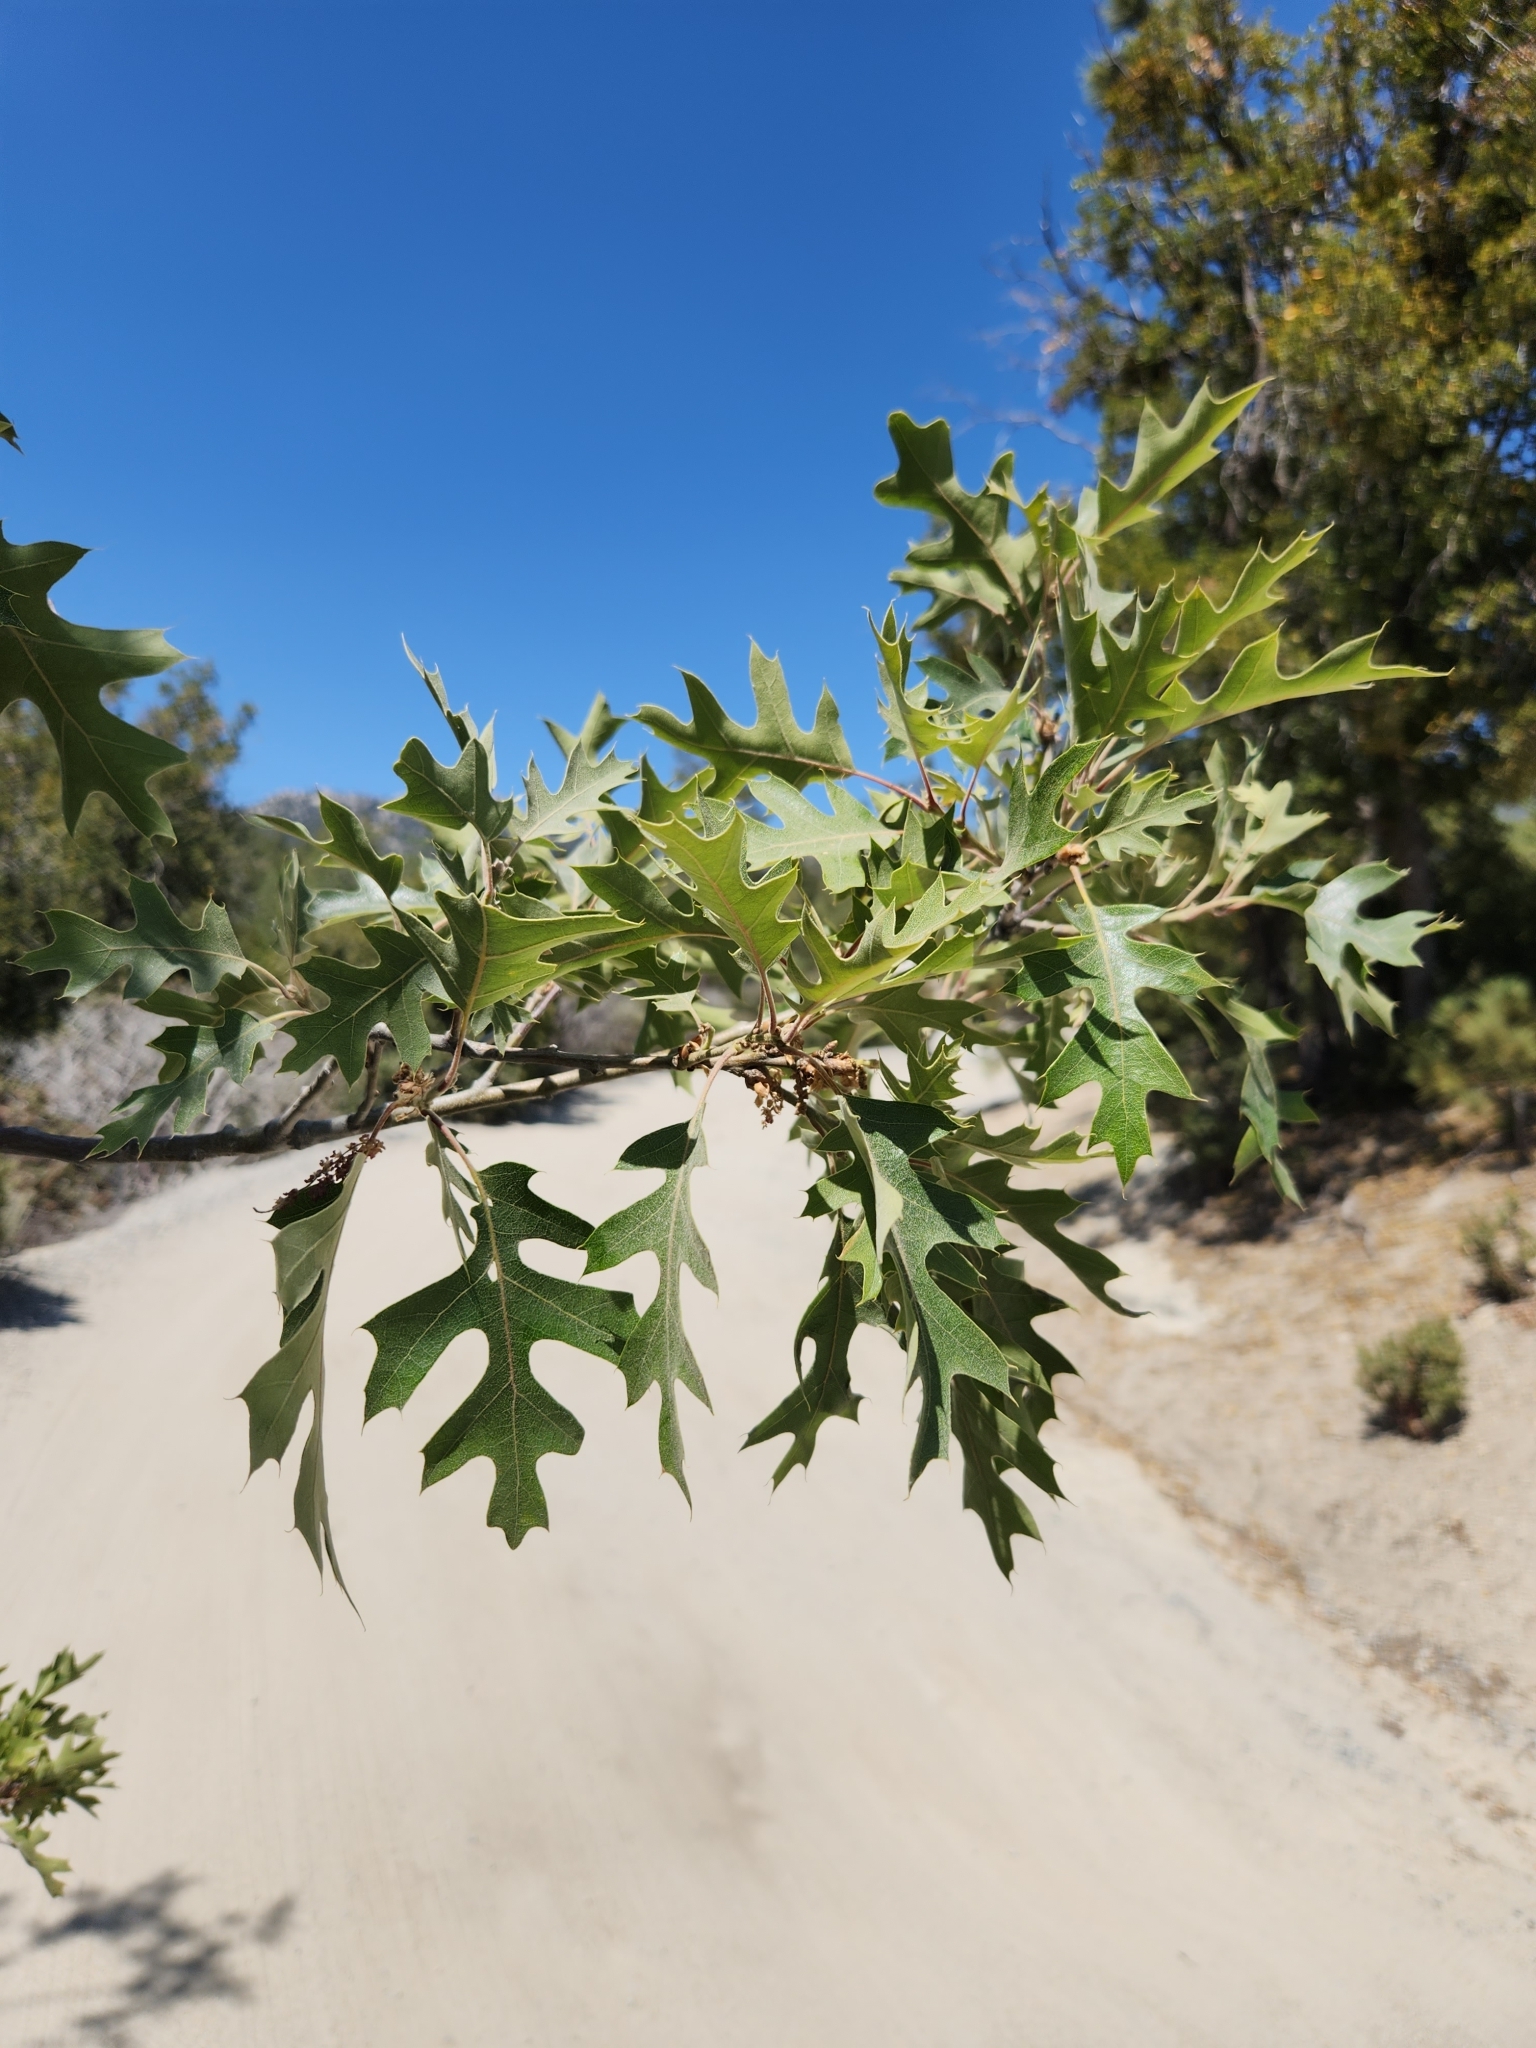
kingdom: Plantae
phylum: Tracheophyta
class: Magnoliopsida
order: Fagales
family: Fagaceae
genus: Quercus
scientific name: Quercus kelloggii
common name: California black oak
